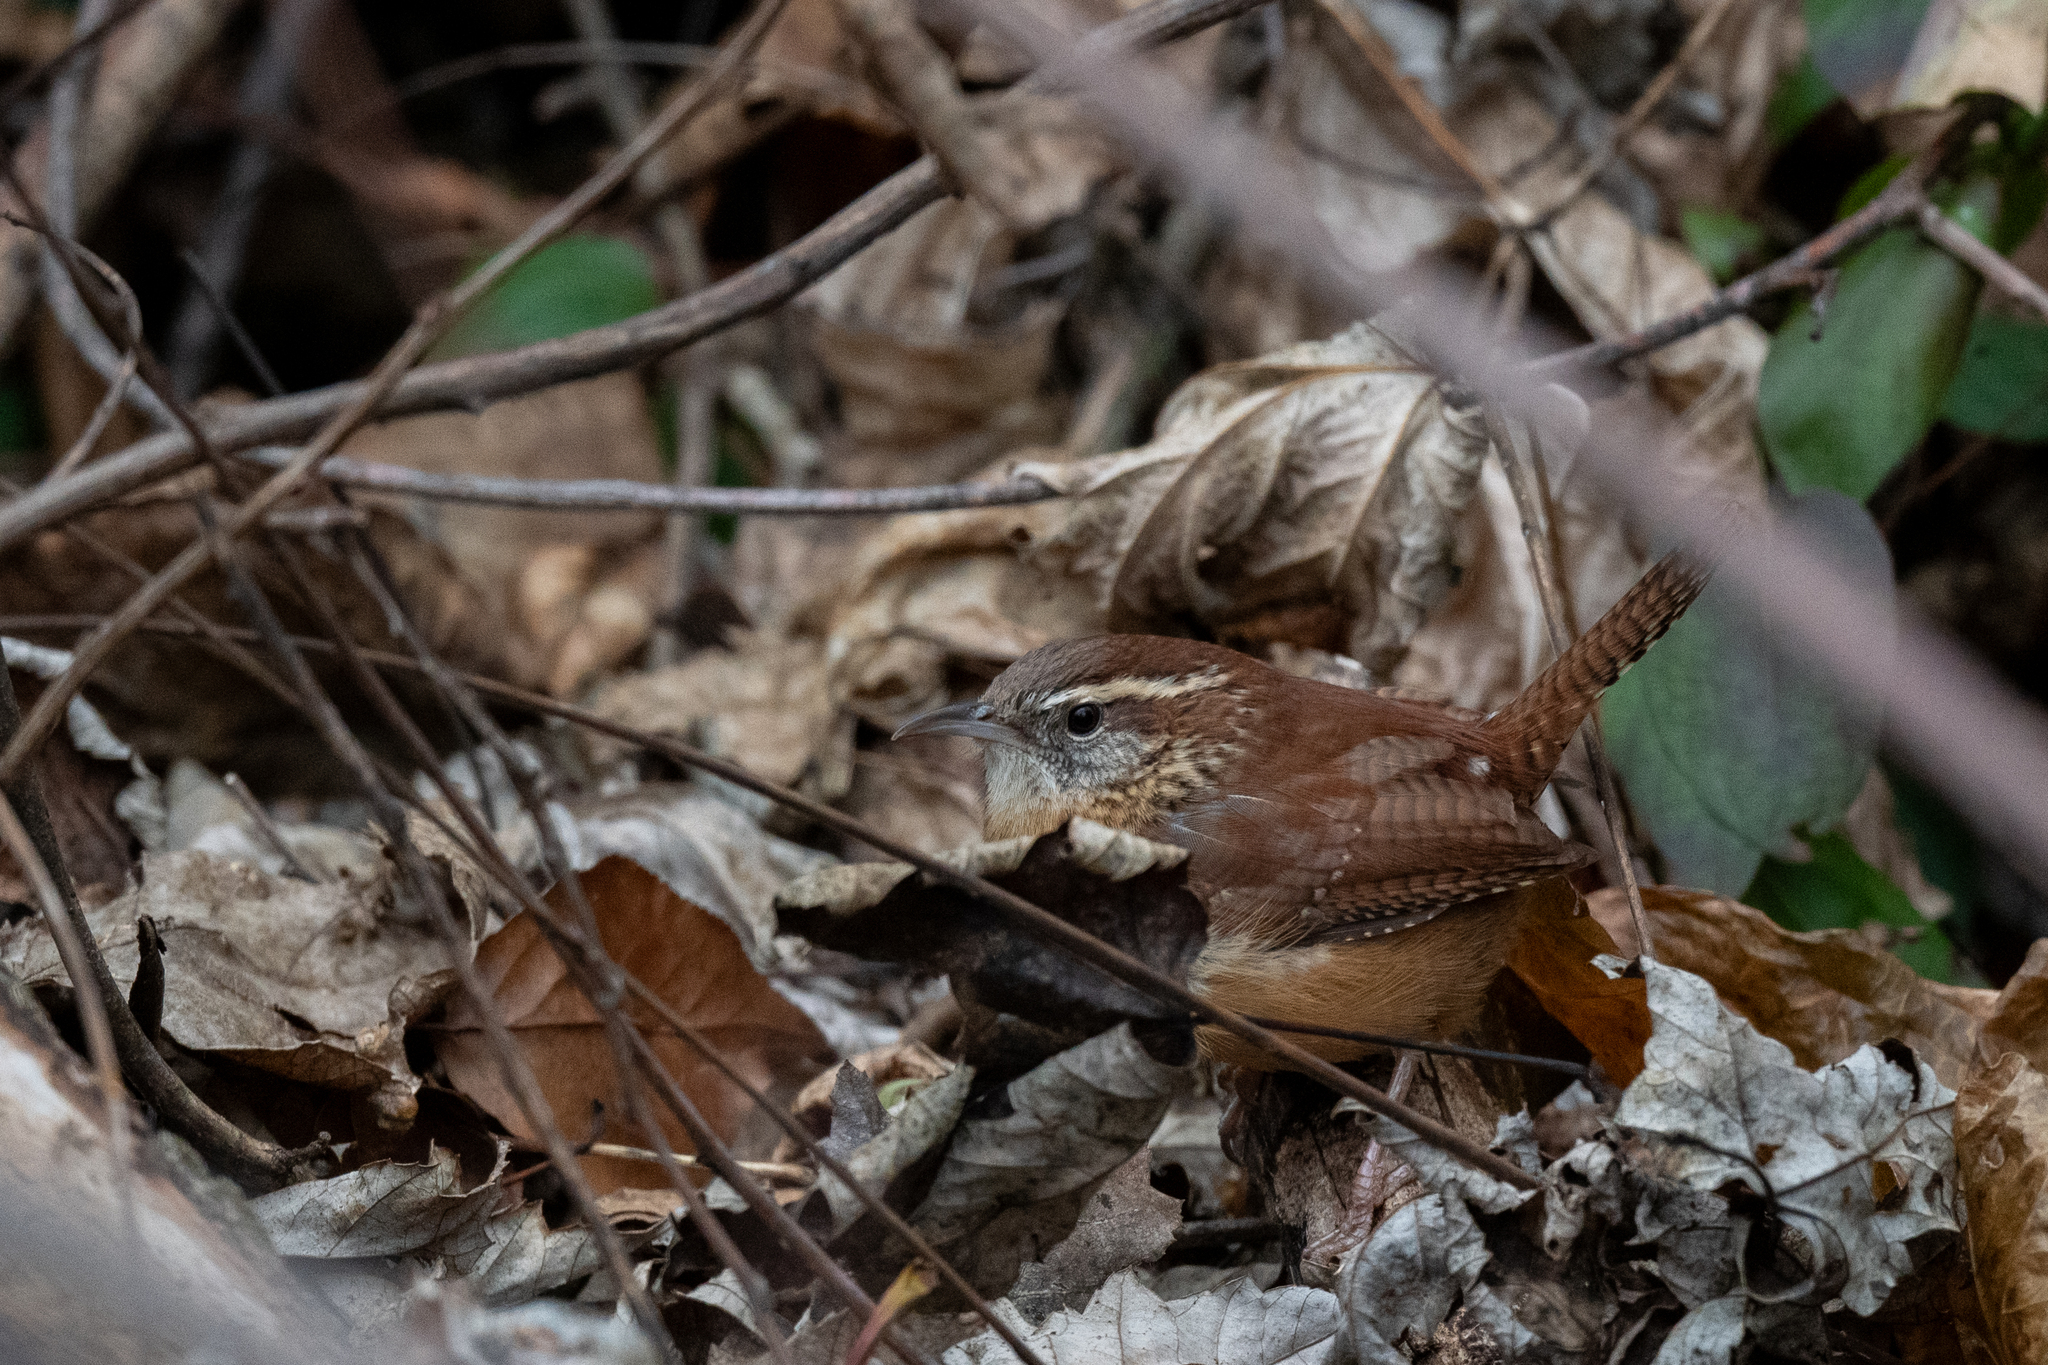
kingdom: Animalia
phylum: Chordata
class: Aves
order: Passeriformes
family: Troglodytidae
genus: Thryothorus
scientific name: Thryothorus ludovicianus
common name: Carolina wren
